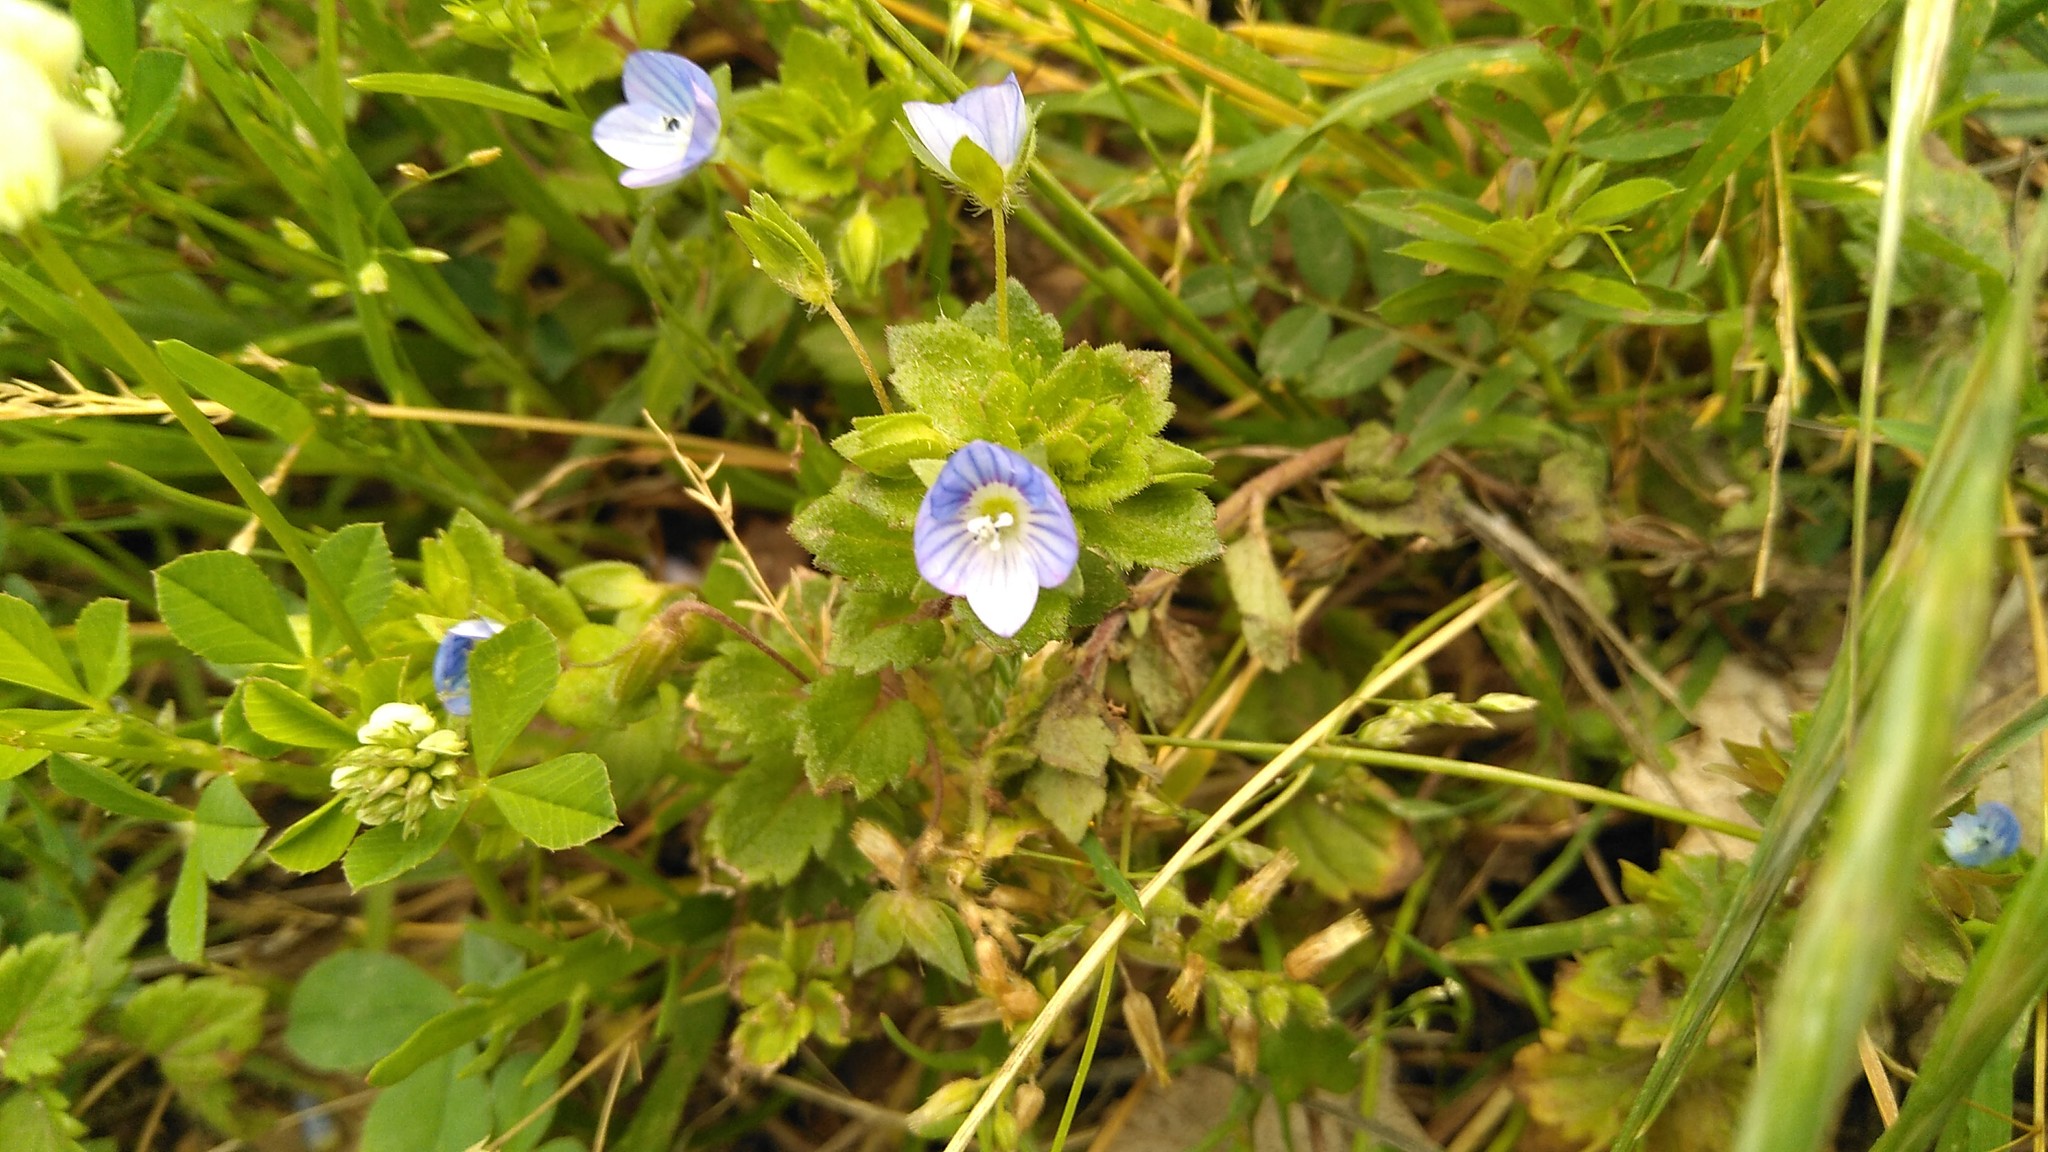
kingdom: Plantae
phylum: Tracheophyta
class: Magnoliopsida
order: Lamiales
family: Plantaginaceae
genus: Veronica
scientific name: Veronica persica
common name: Common field-speedwell
